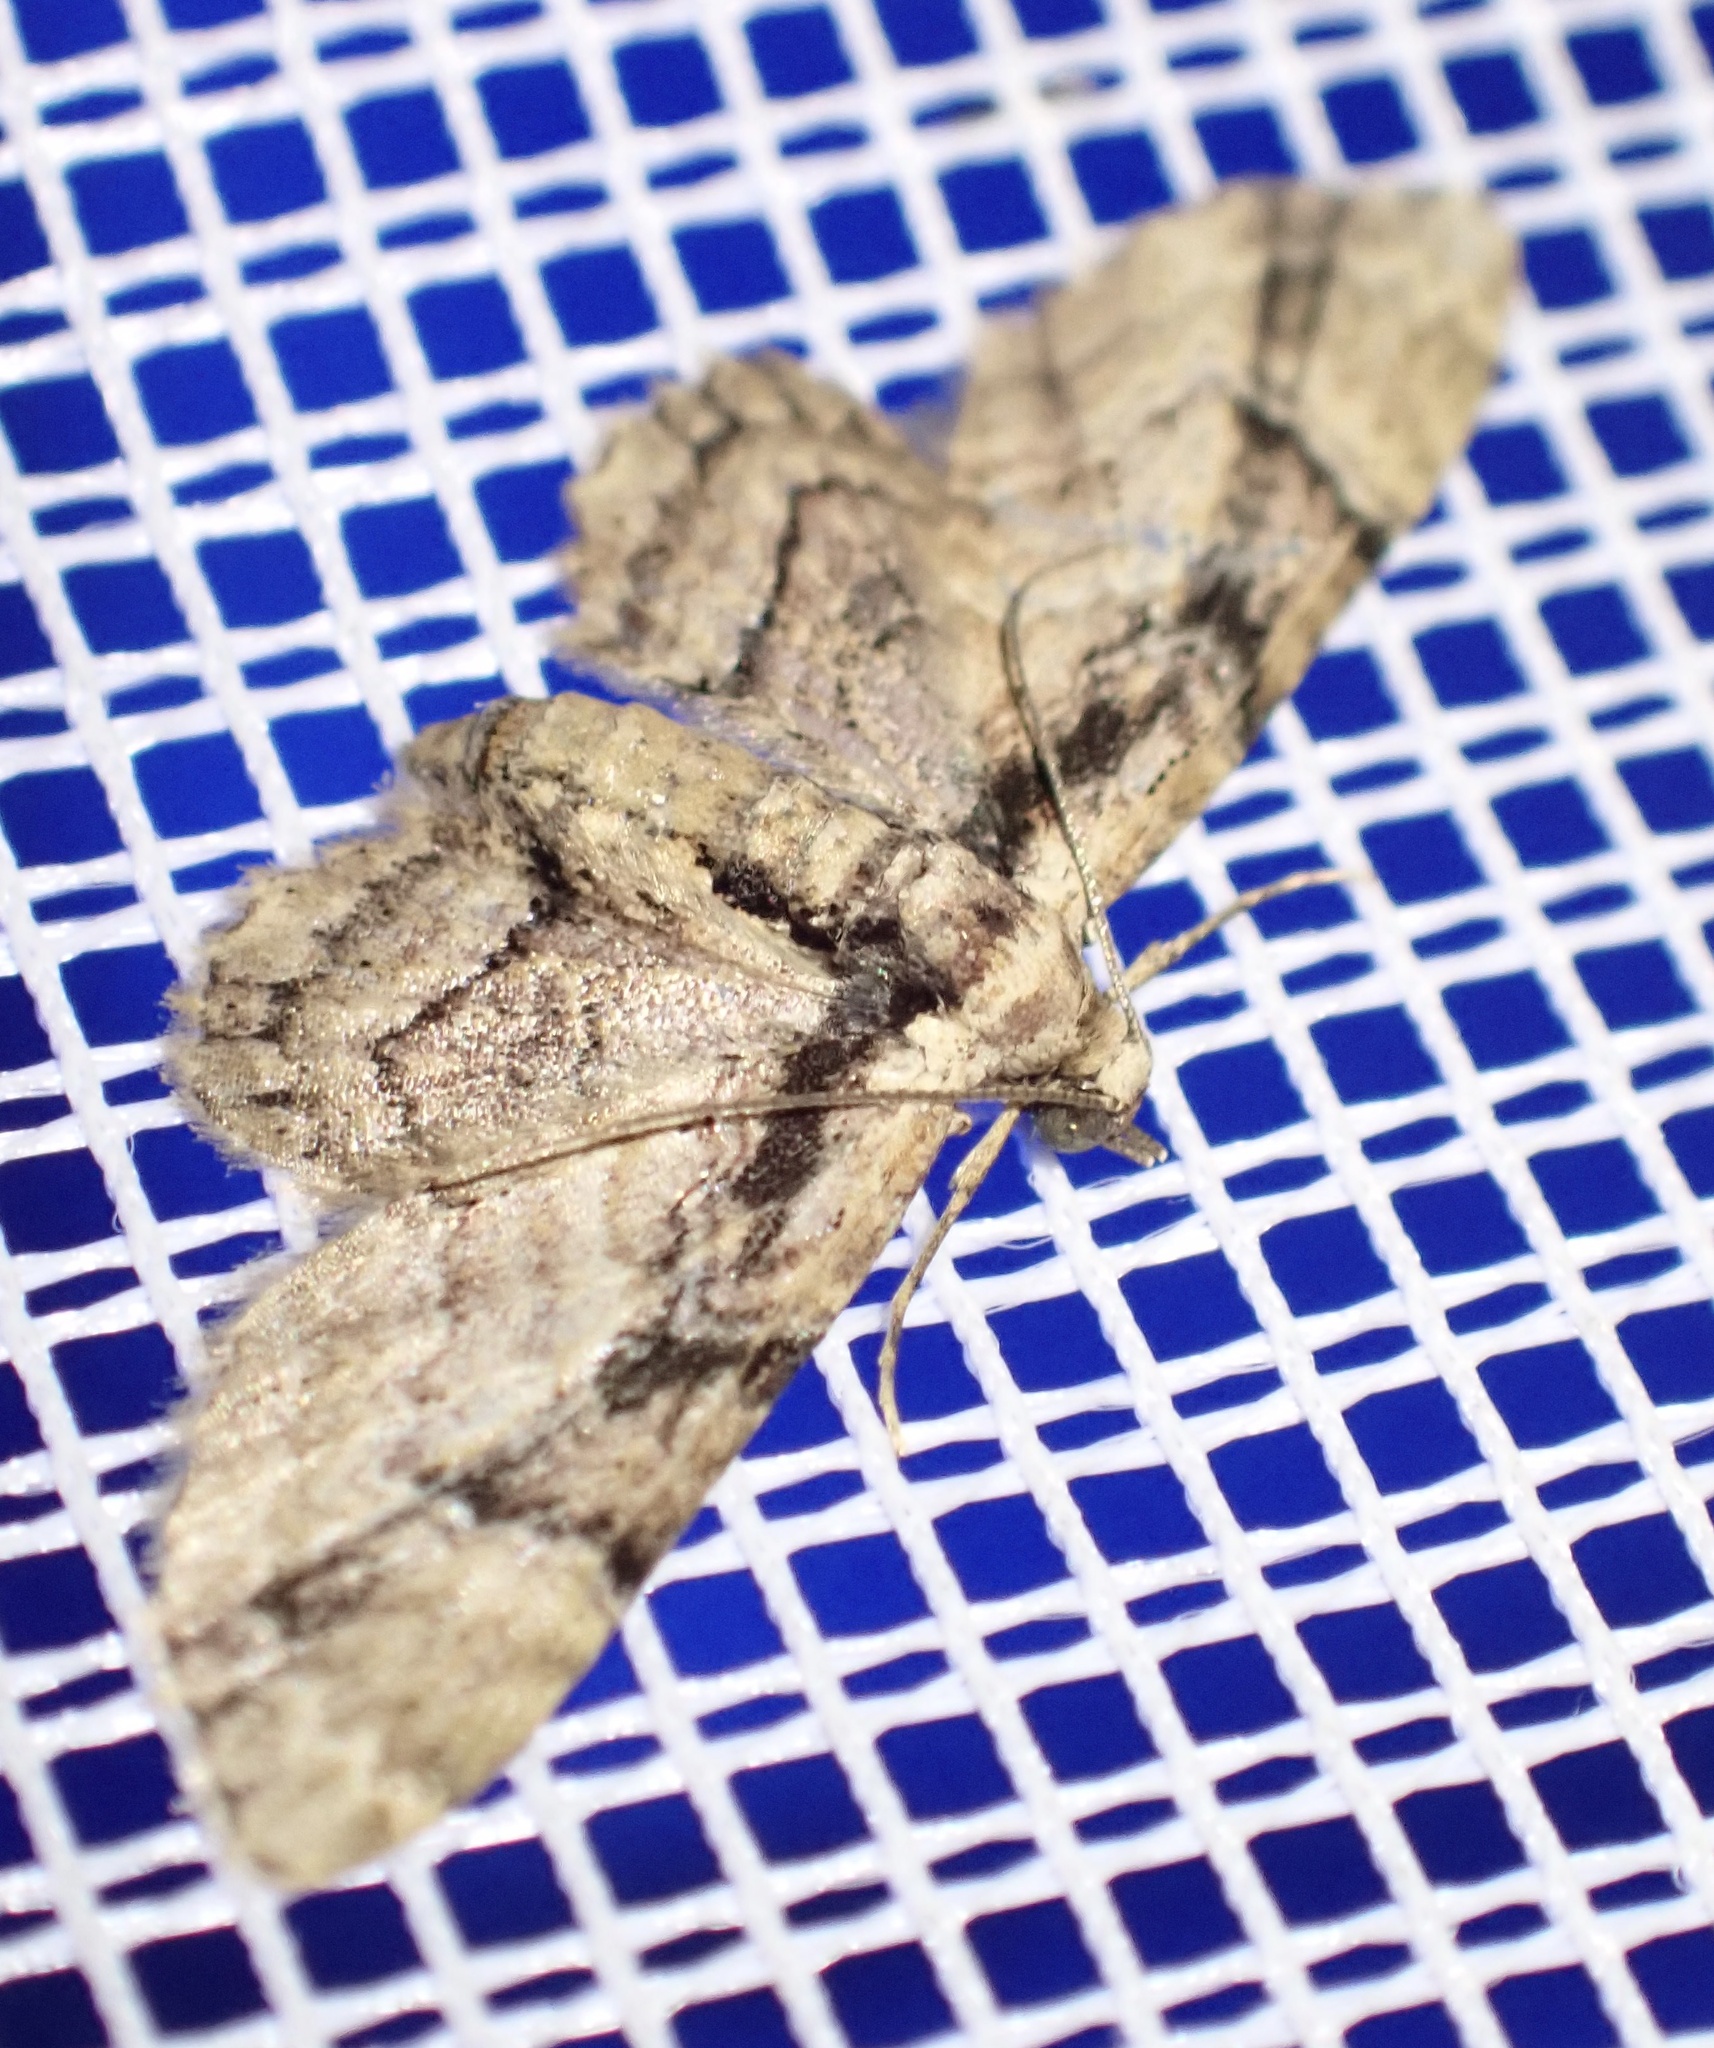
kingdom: Animalia
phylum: Arthropoda
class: Insecta
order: Lepidoptera
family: Geometridae
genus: Gymnoscelis
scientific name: Gymnoscelis ischnophylla
